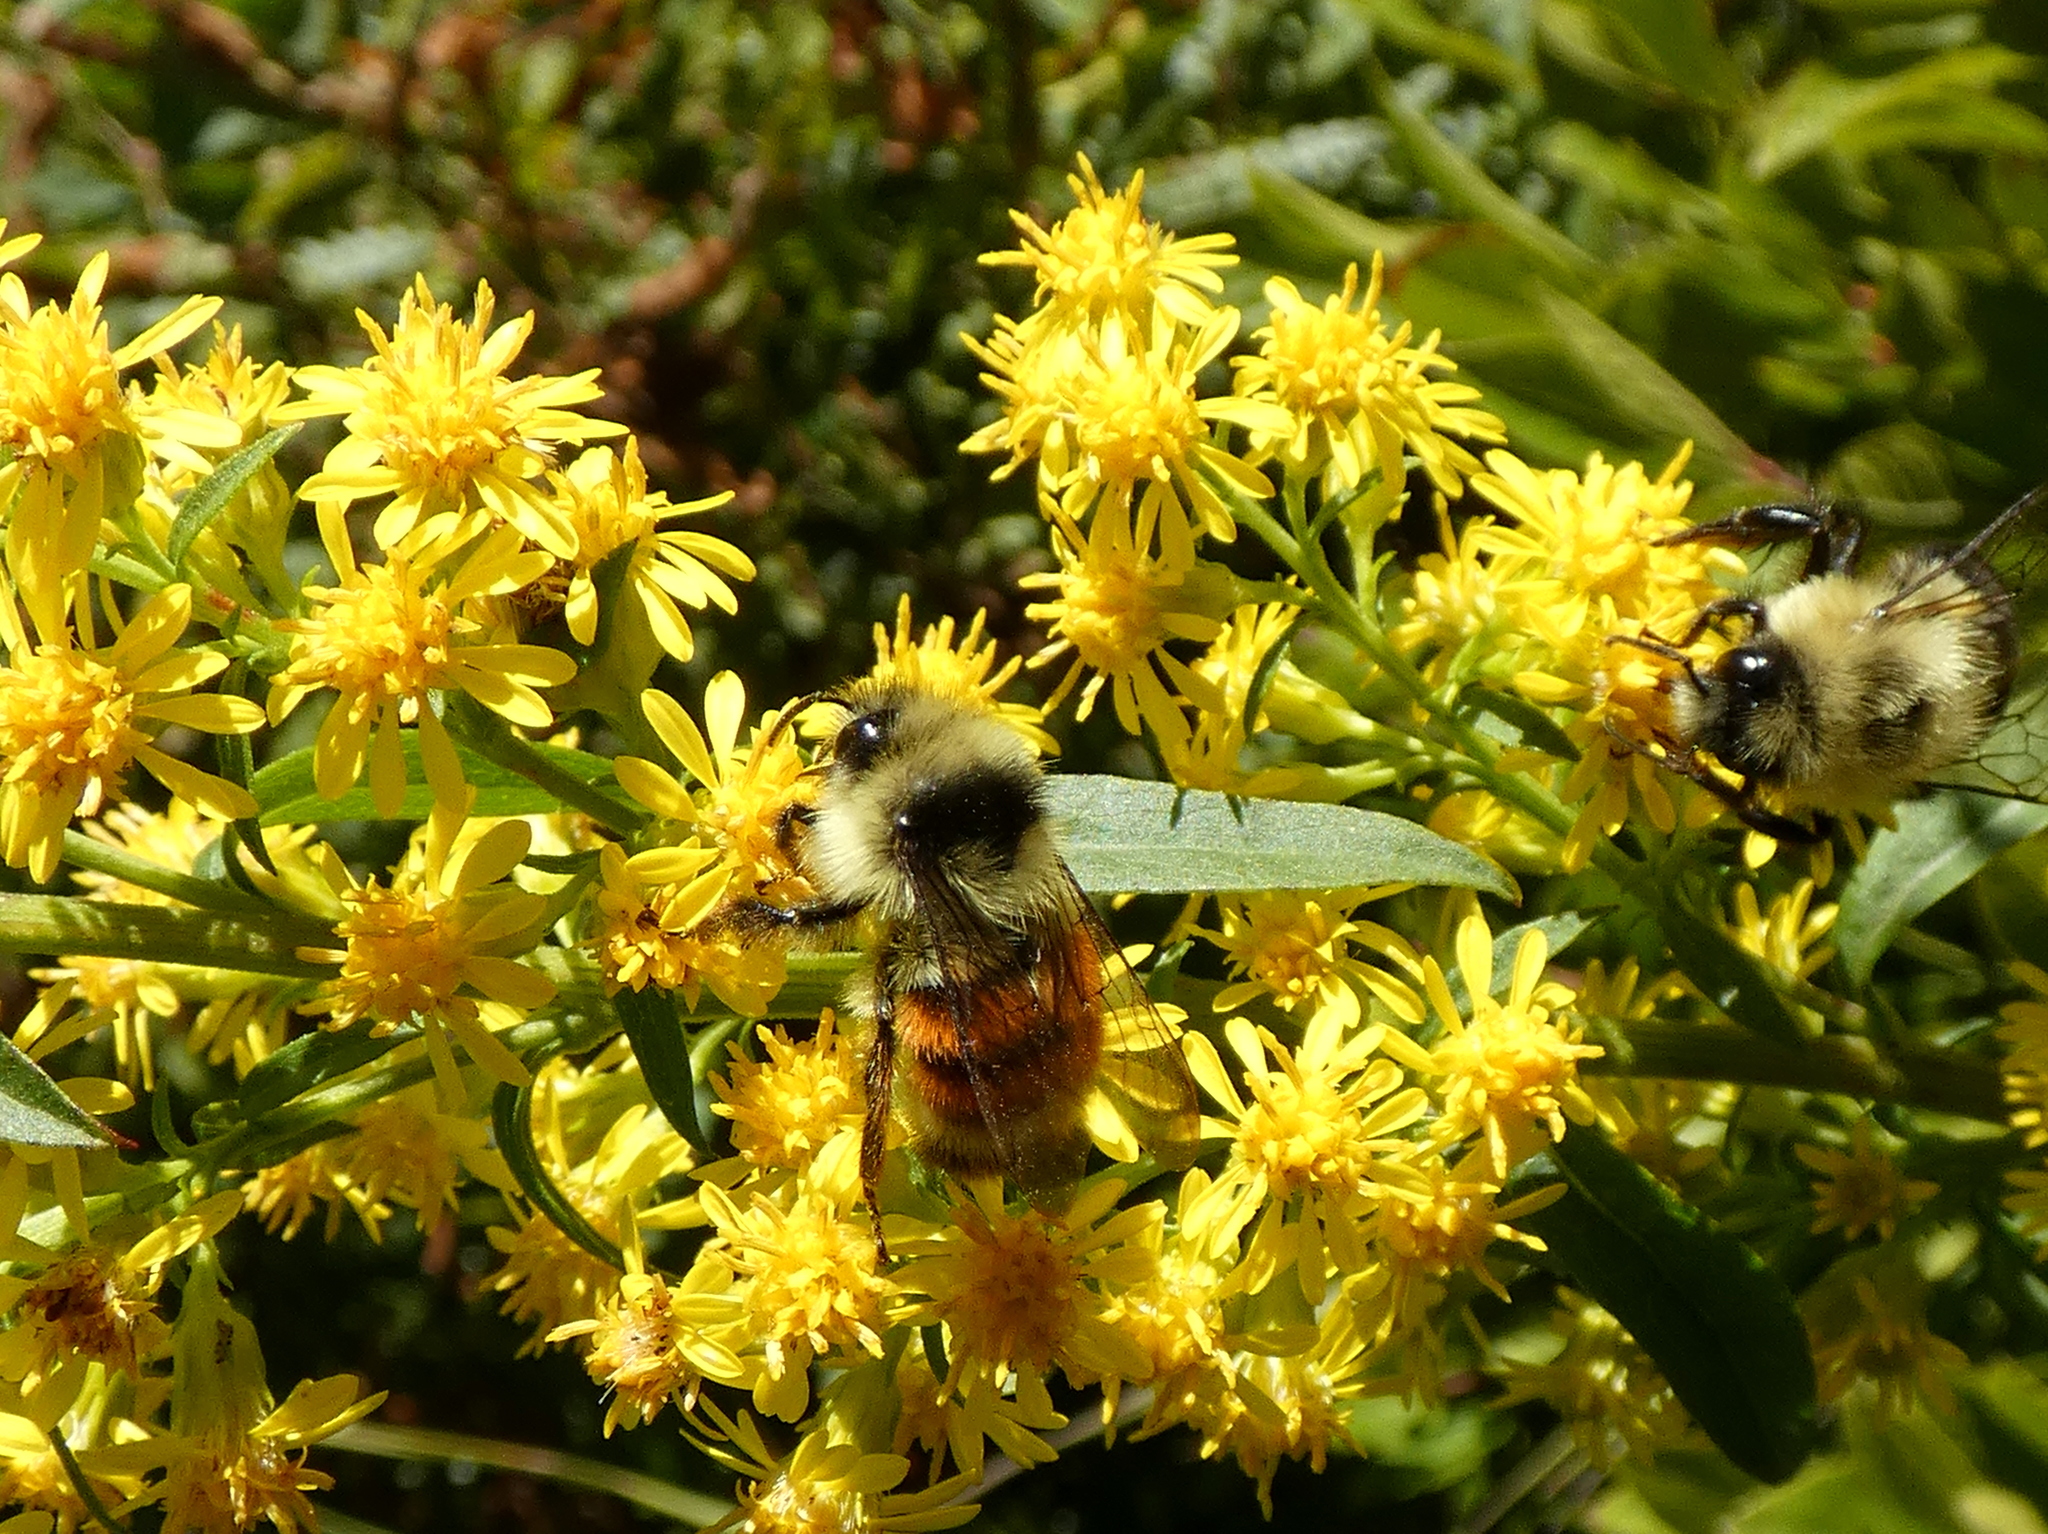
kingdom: Animalia
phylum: Arthropoda
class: Insecta
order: Hymenoptera
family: Apidae
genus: Bombus
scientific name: Bombus ternarius
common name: Tri-colored bumble bee
